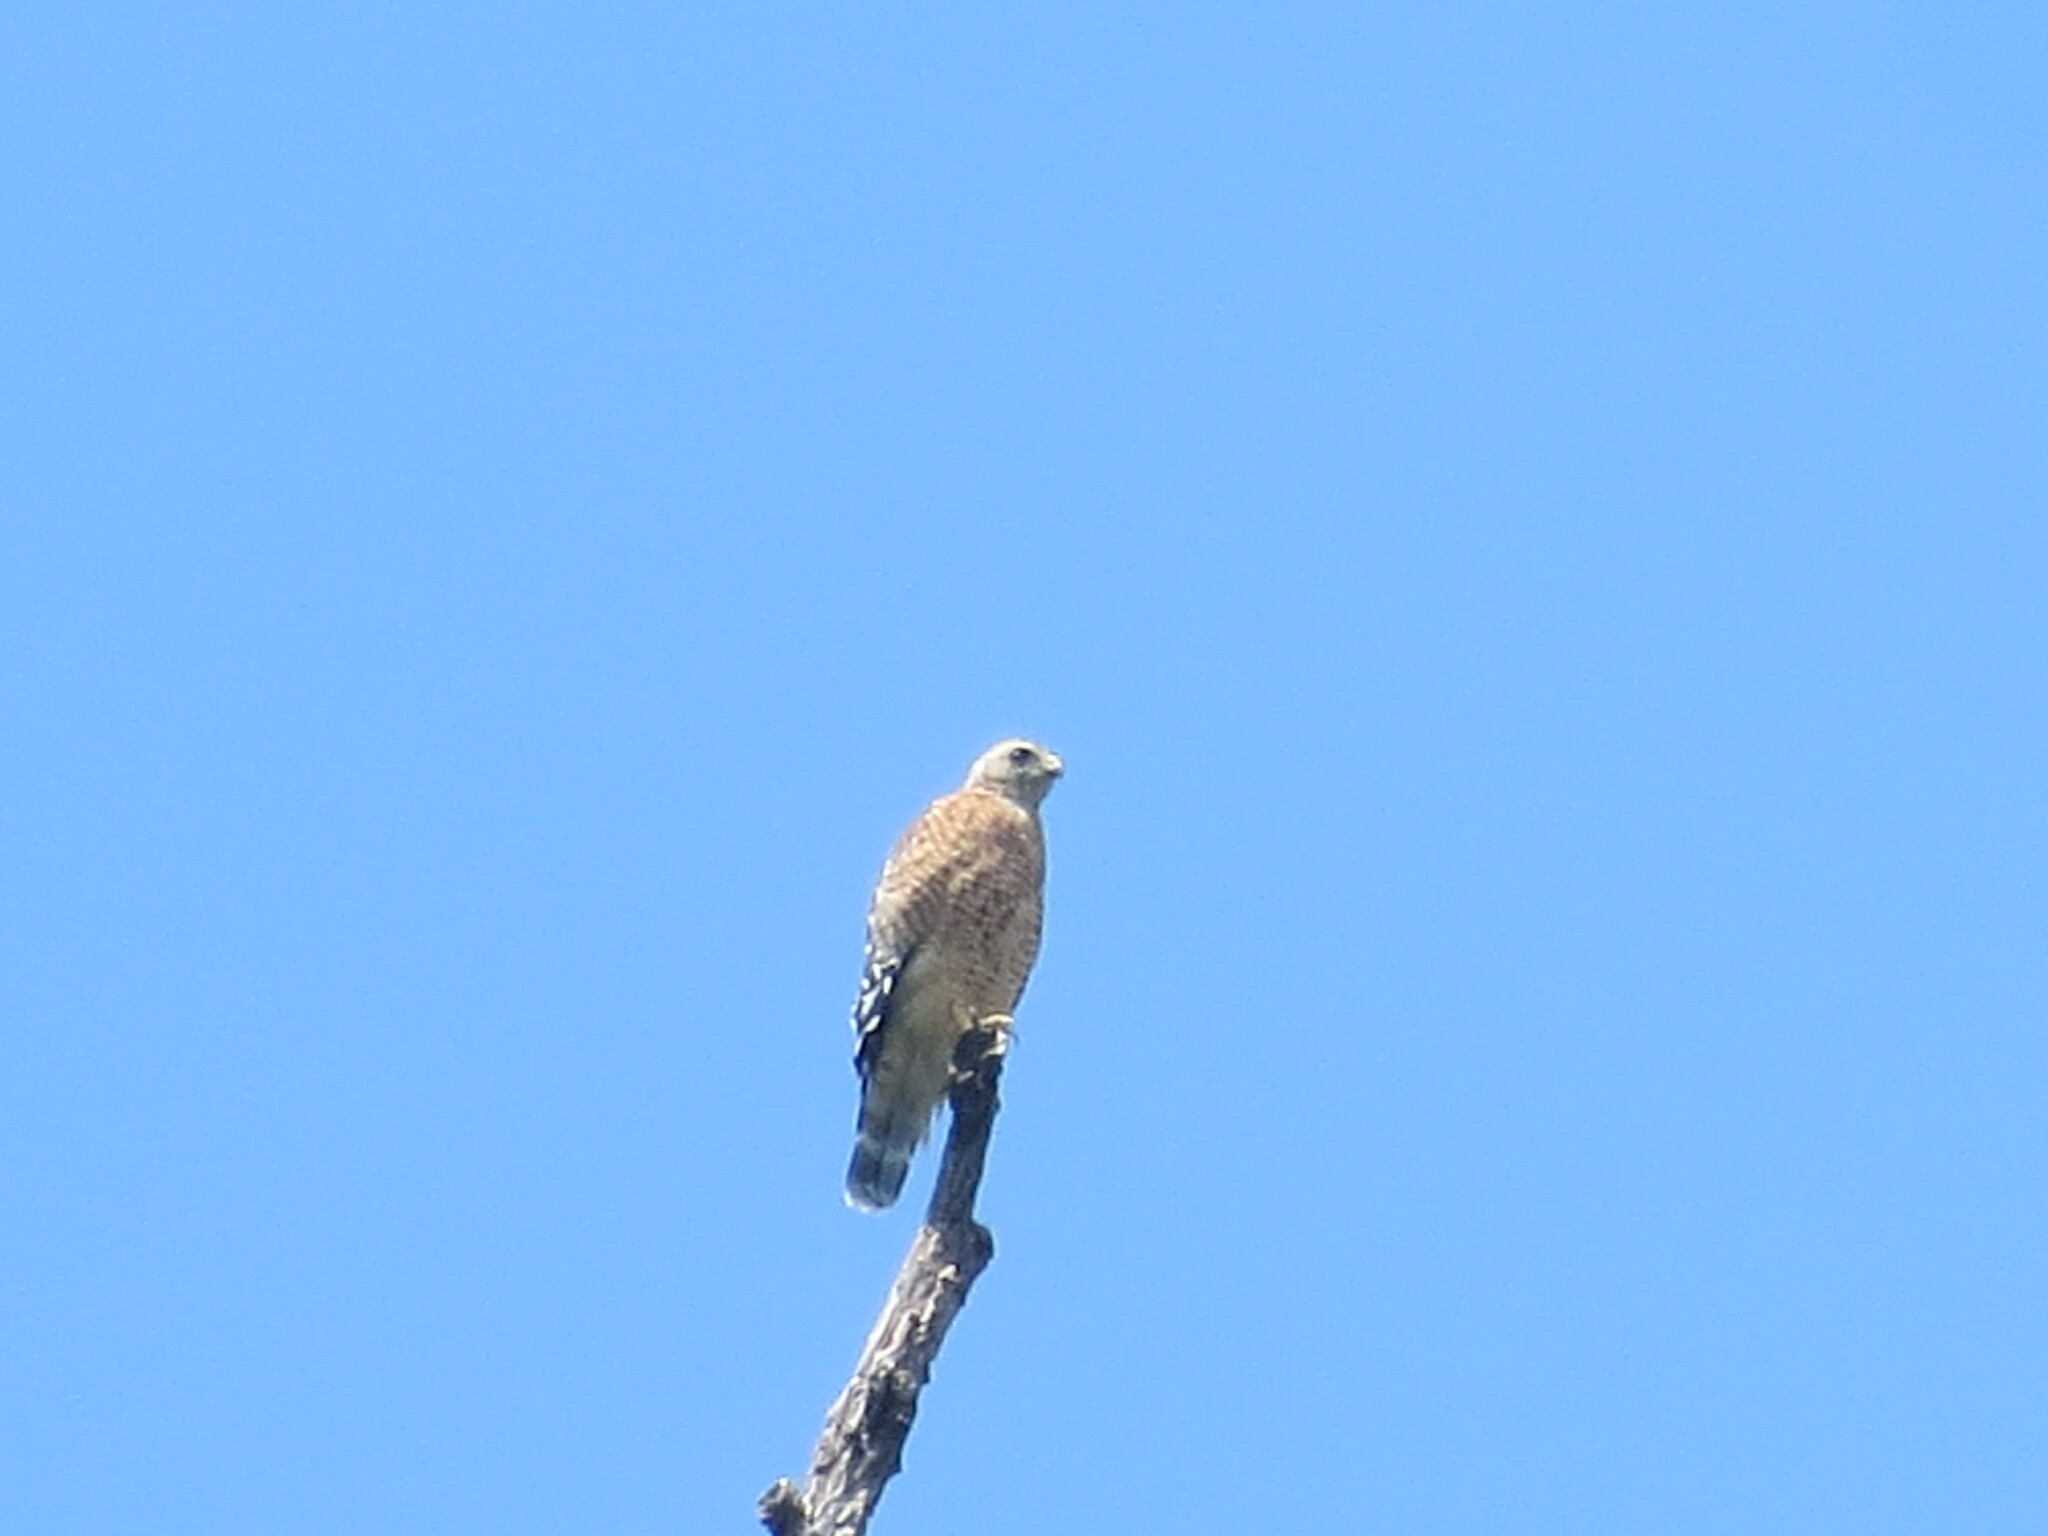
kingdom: Animalia
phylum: Chordata
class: Aves
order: Accipitriformes
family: Accipitridae
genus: Buteo
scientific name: Buteo lineatus
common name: Red-shouldered hawk
